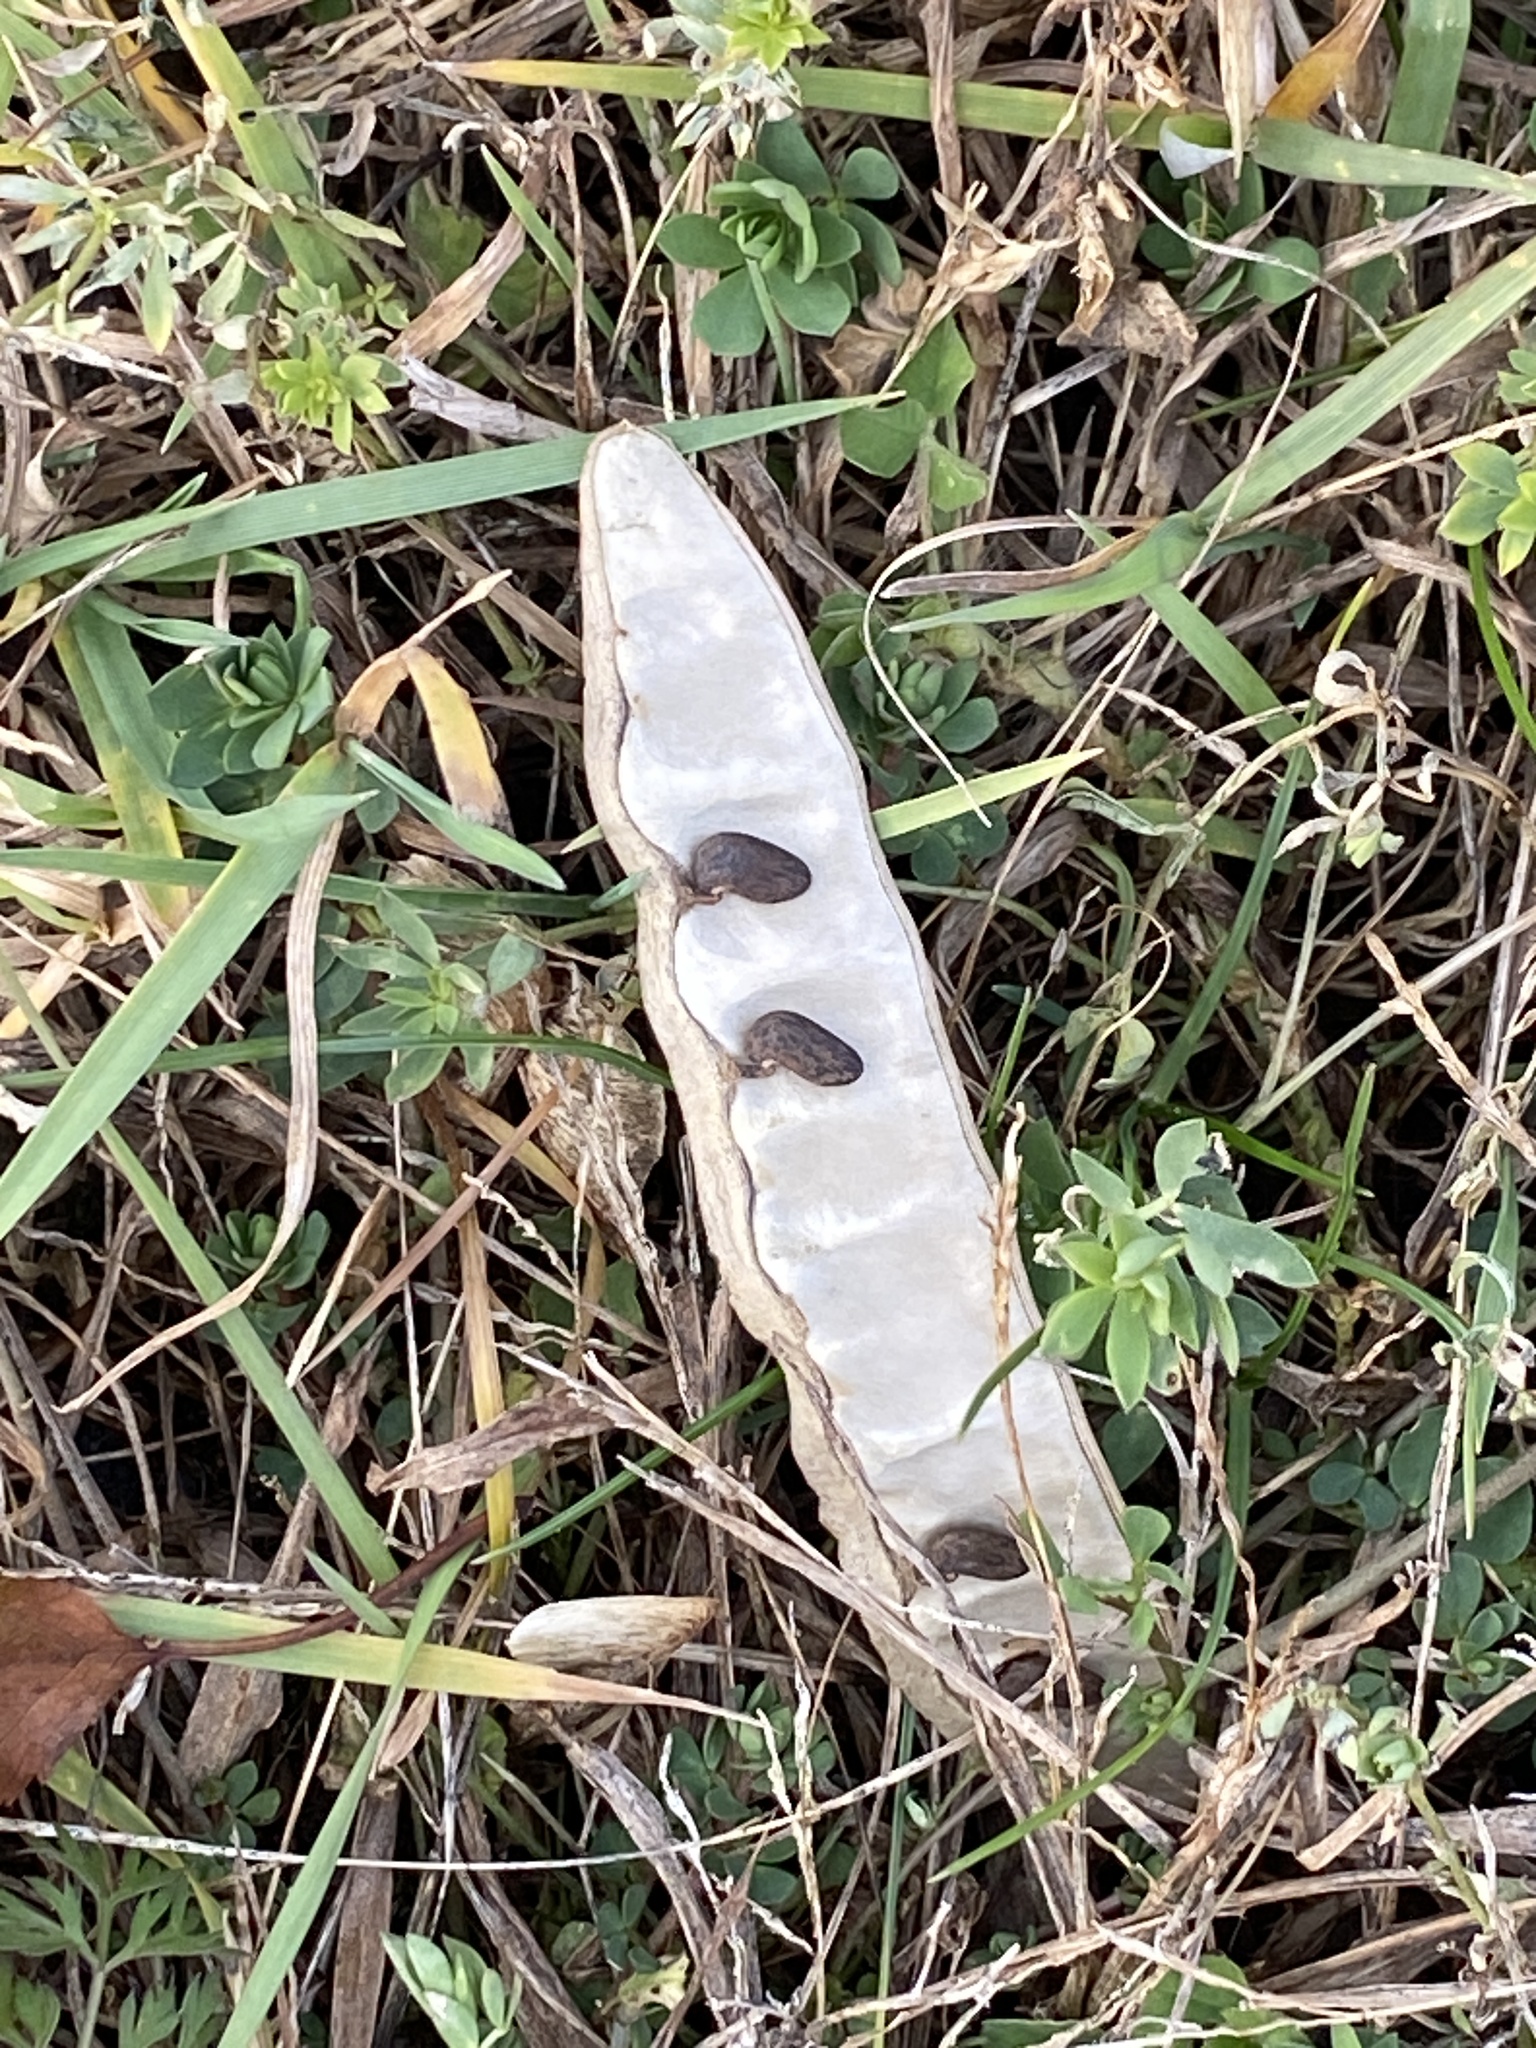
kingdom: Plantae
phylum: Tracheophyta
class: Magnoliopsida
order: Fabales
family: Fabaceae
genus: Robinia
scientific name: Robinia pseudoacacia
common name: Black locust
